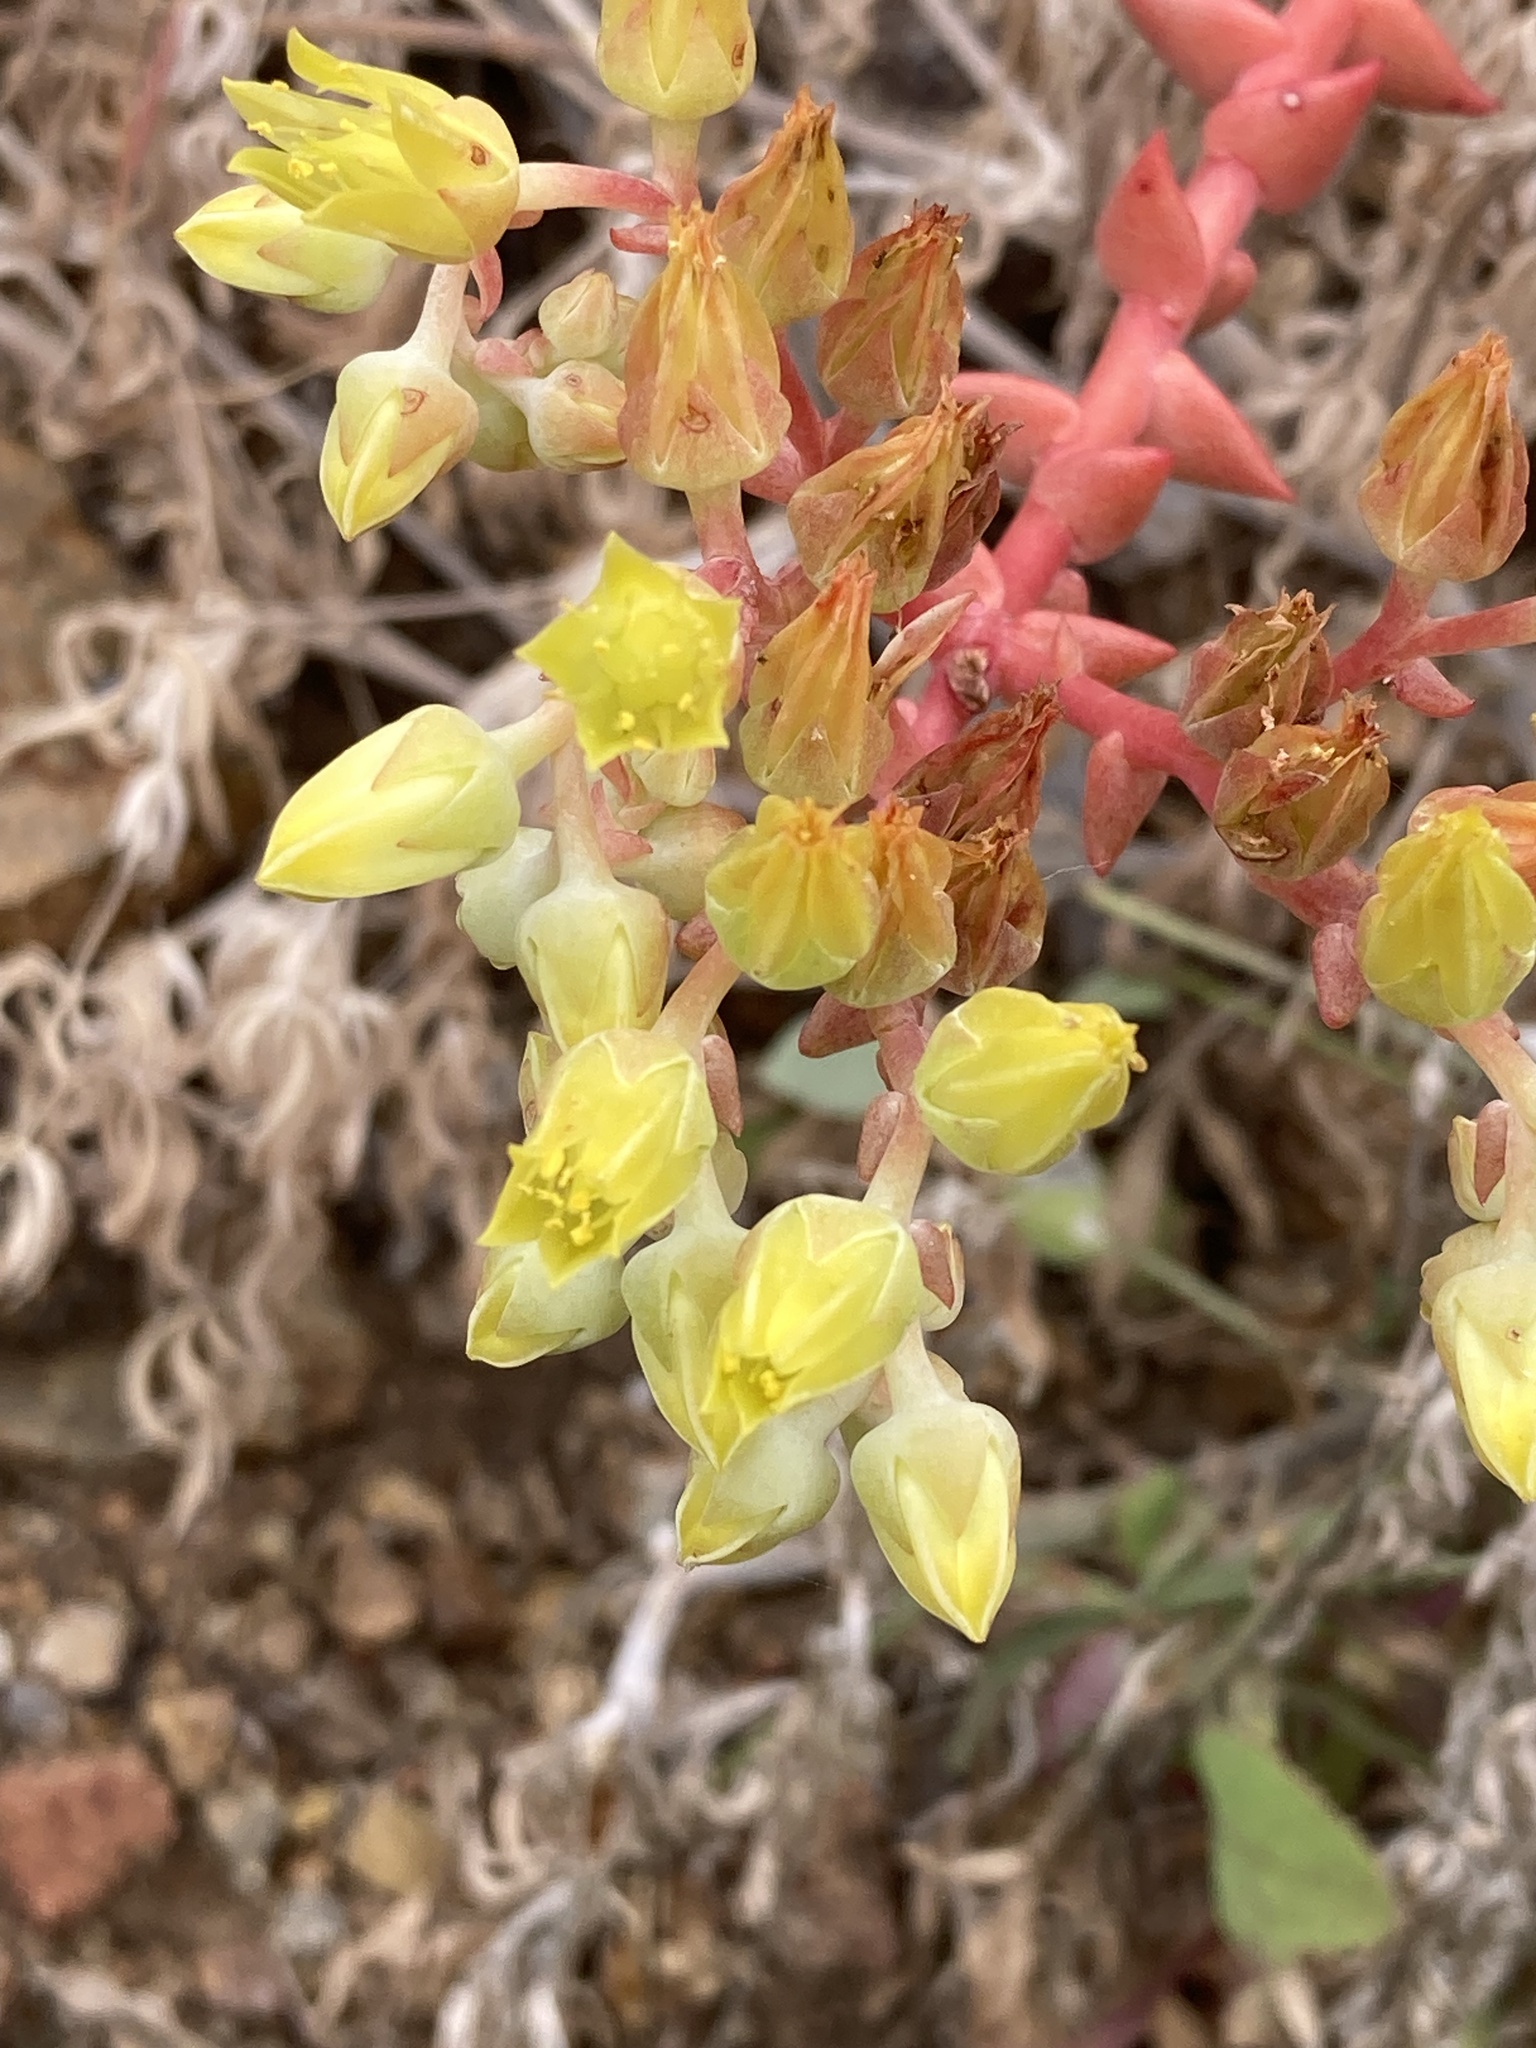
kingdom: Plantae
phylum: Tracheophyta
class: Magnoliopsida
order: Saxifragales
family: Crassulaceae
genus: Dudleya
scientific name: Dudleya greenei
